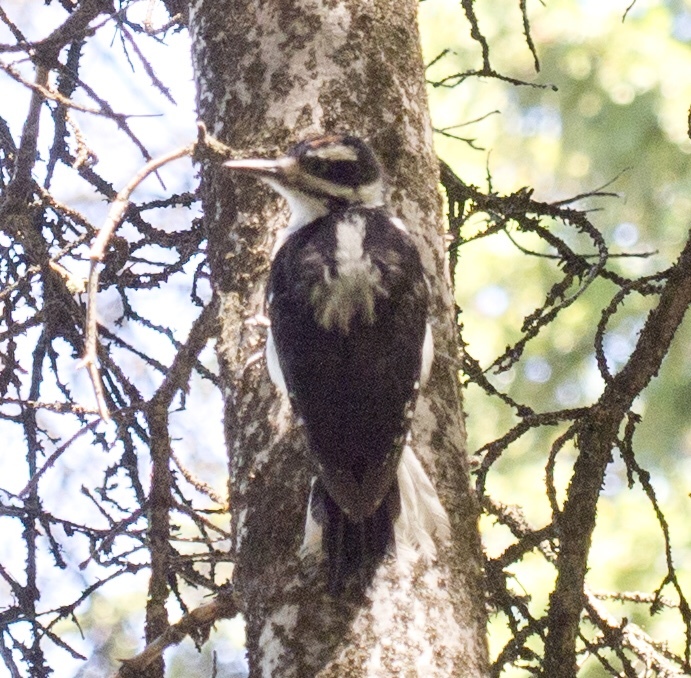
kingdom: Animalia
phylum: Chordata
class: Aves
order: Piciformes
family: Picidae
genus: Leuconotopicus
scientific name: Leuconotopicus villosus
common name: Hairy woodpecker
